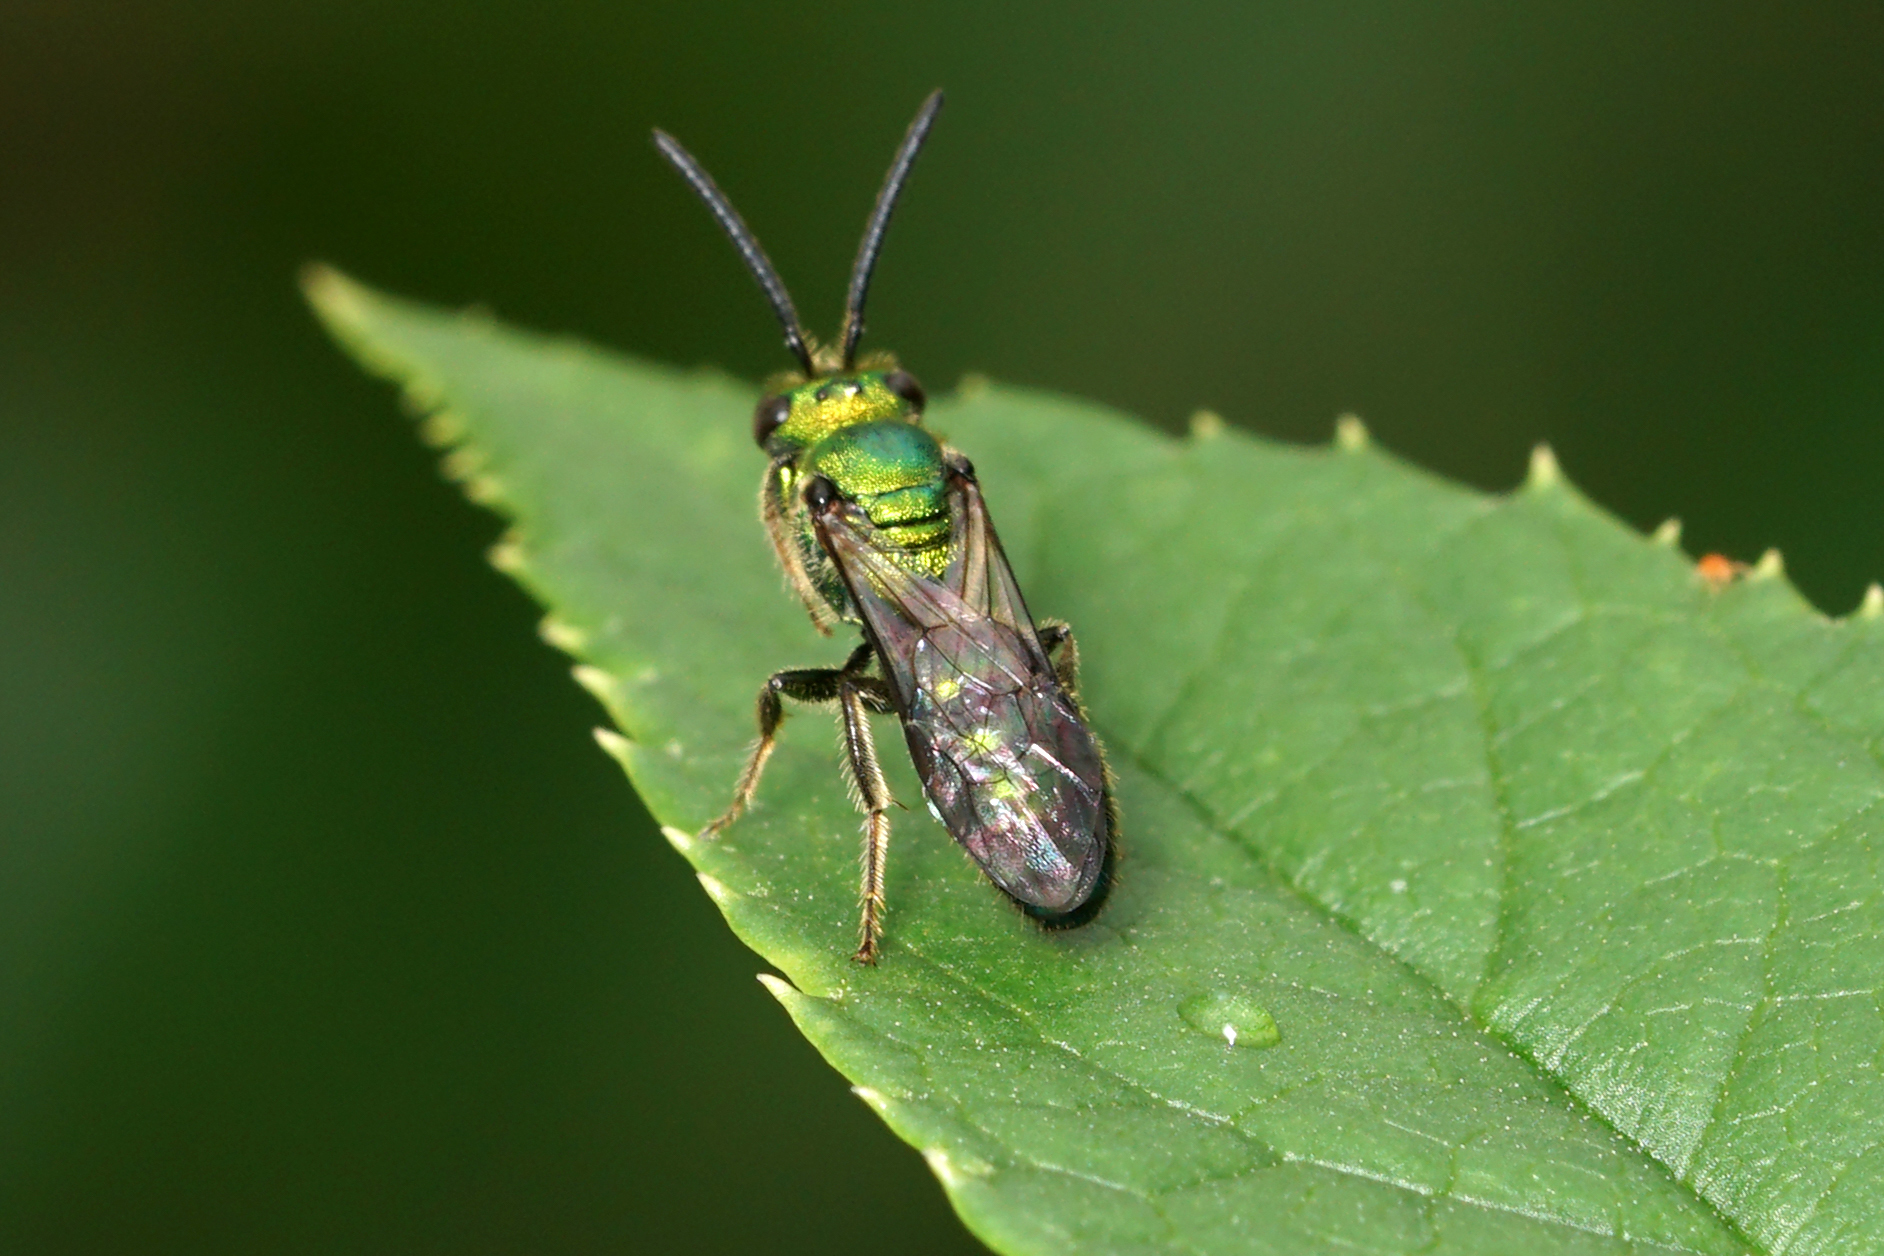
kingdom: Animalia
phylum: Arthropoda
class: Insecta
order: Hymenoptera
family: Halictidae
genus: Augochlora
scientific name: Augochlora pura
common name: Pure green sweat bee
